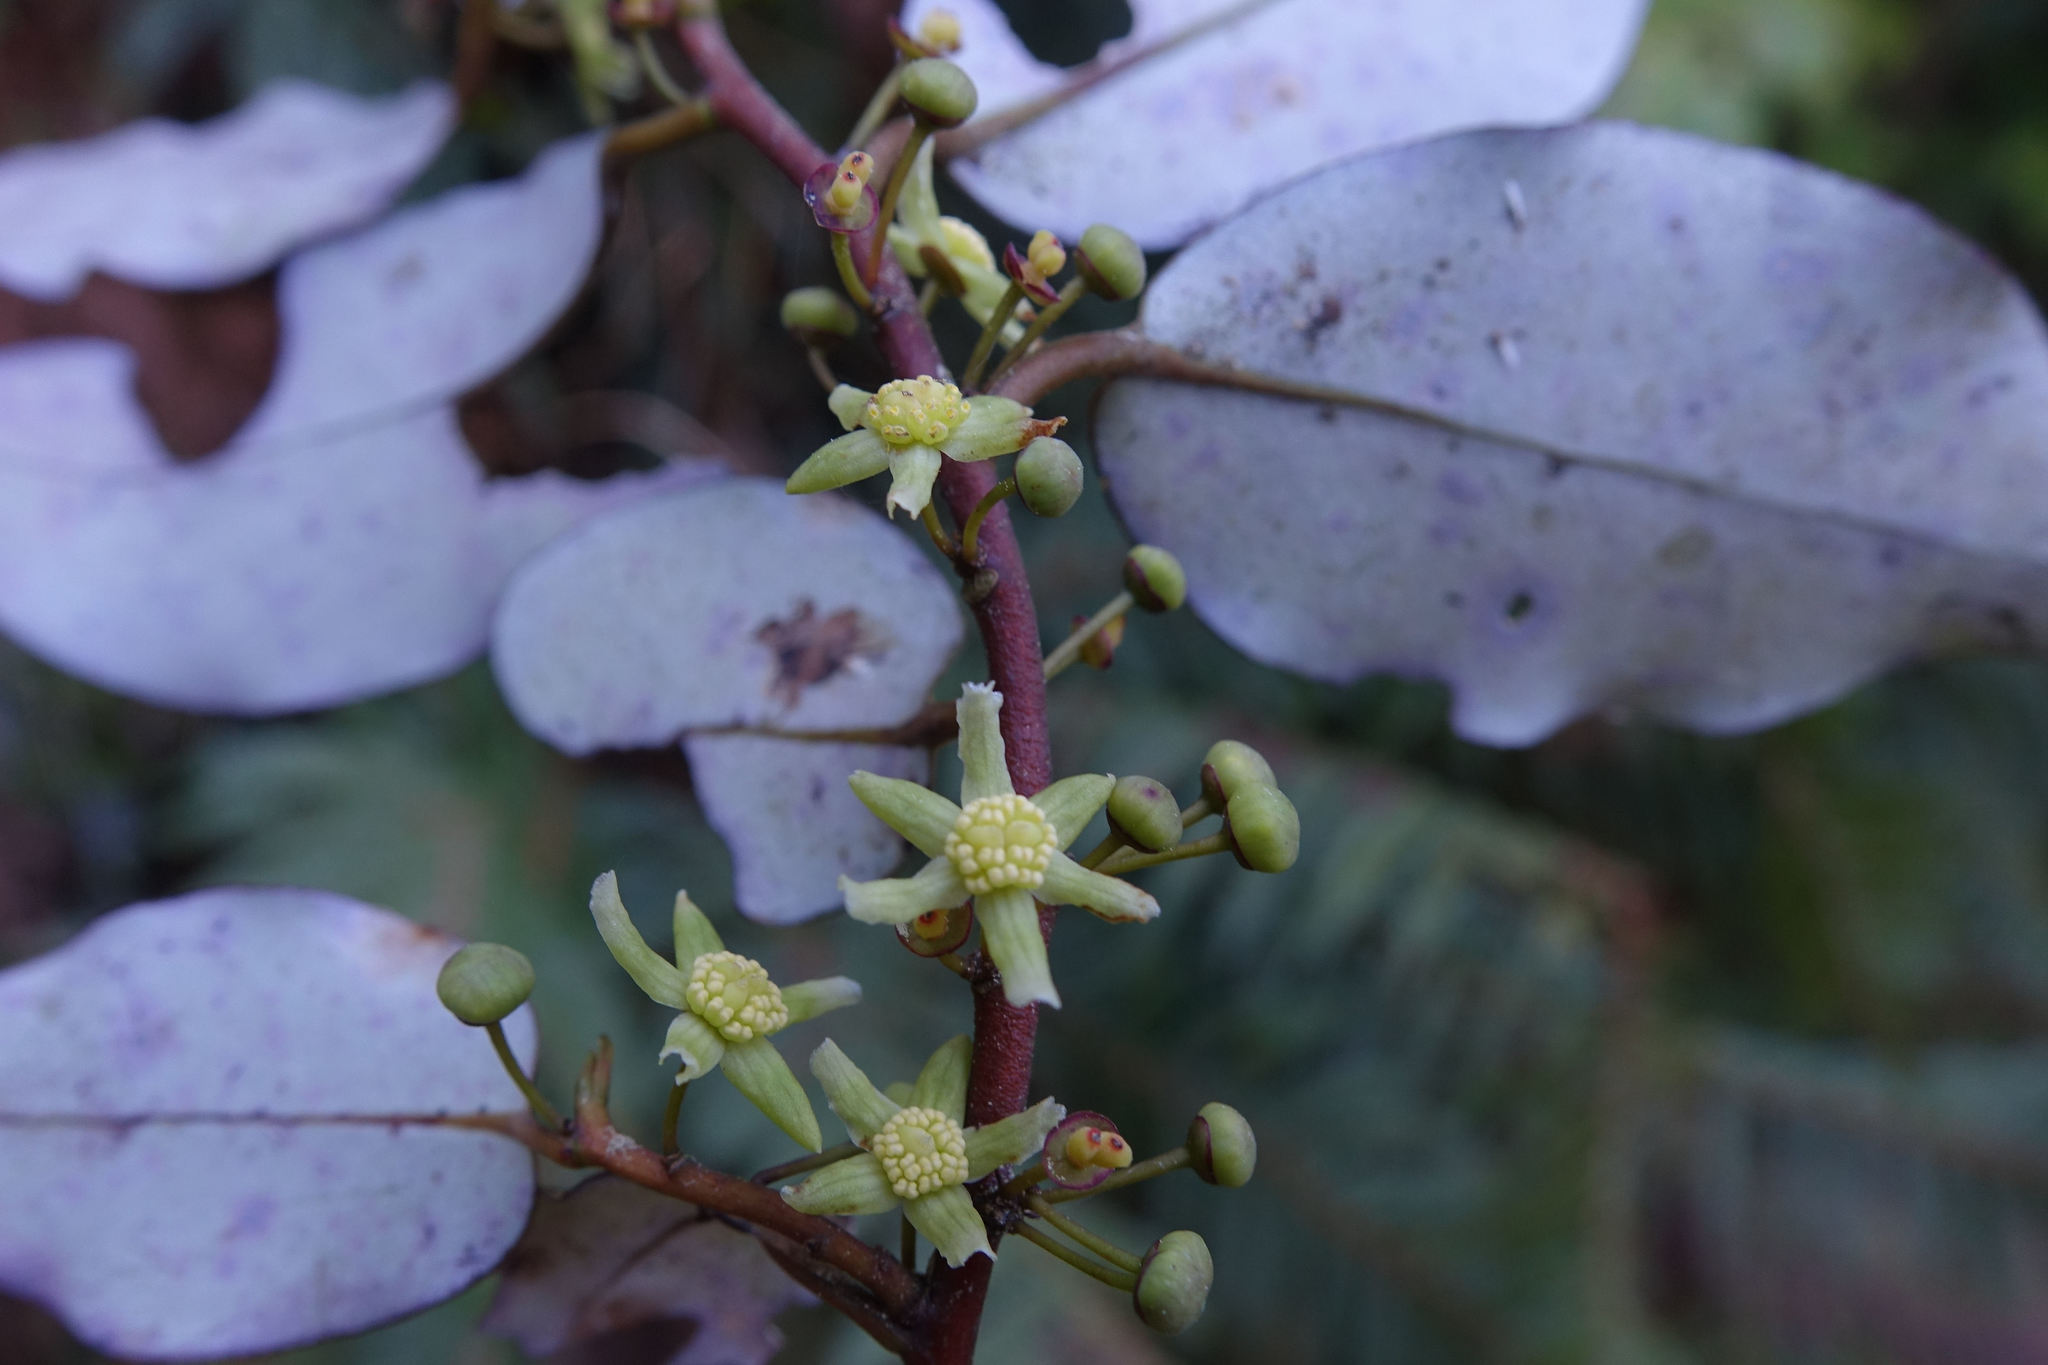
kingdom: Plantae
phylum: Tracheophyta
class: Magnoliopsida
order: Canellales
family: Winteraceae
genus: Pseudowintera
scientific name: Pseudowintera colorata
